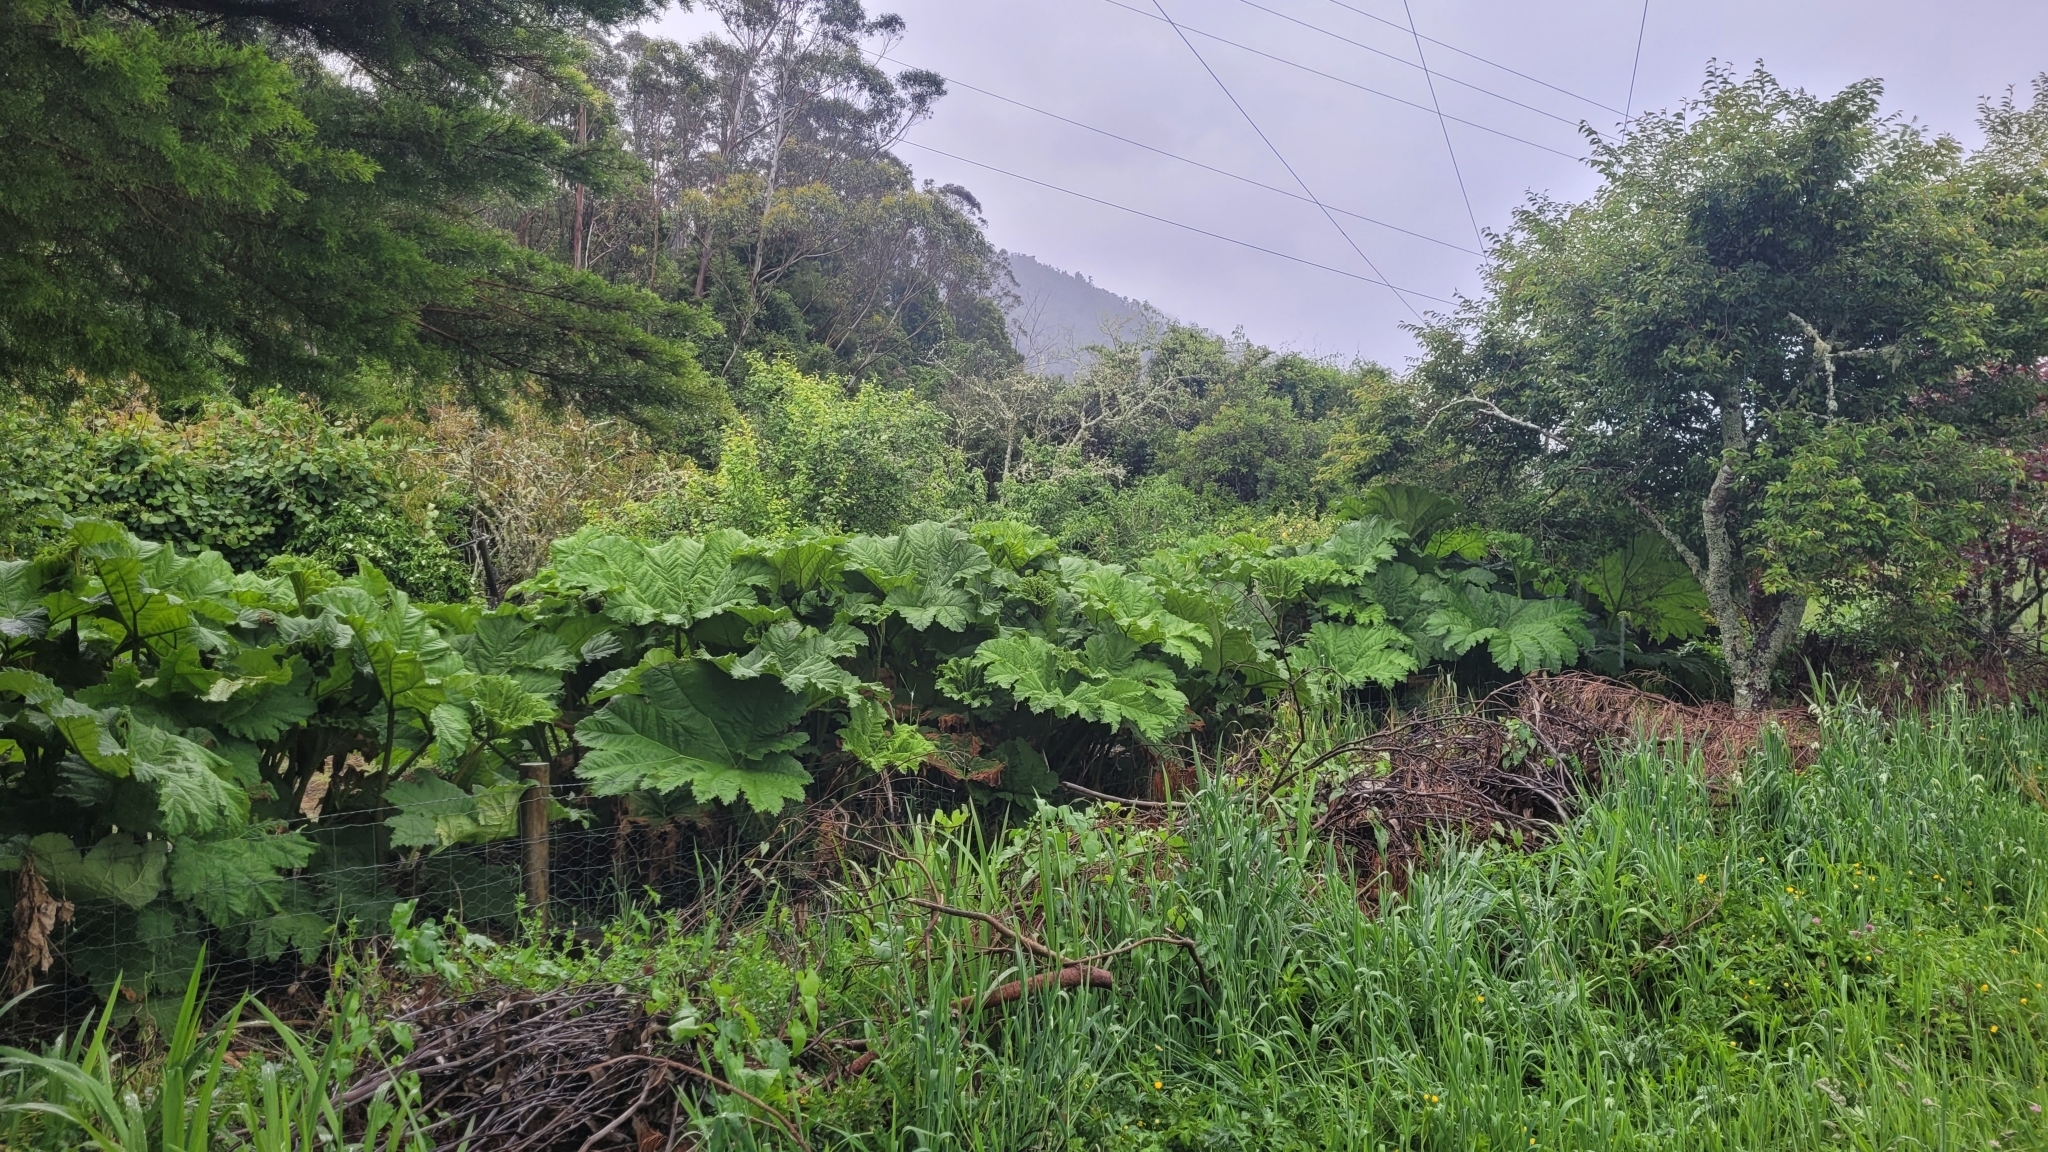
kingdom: Plantae
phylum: Tracheophyta
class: Magnoliopsida
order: Gunnerales
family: Gunneraceae
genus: Gunnera
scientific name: Gunnera tinctoria
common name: Giant-rhubarb
